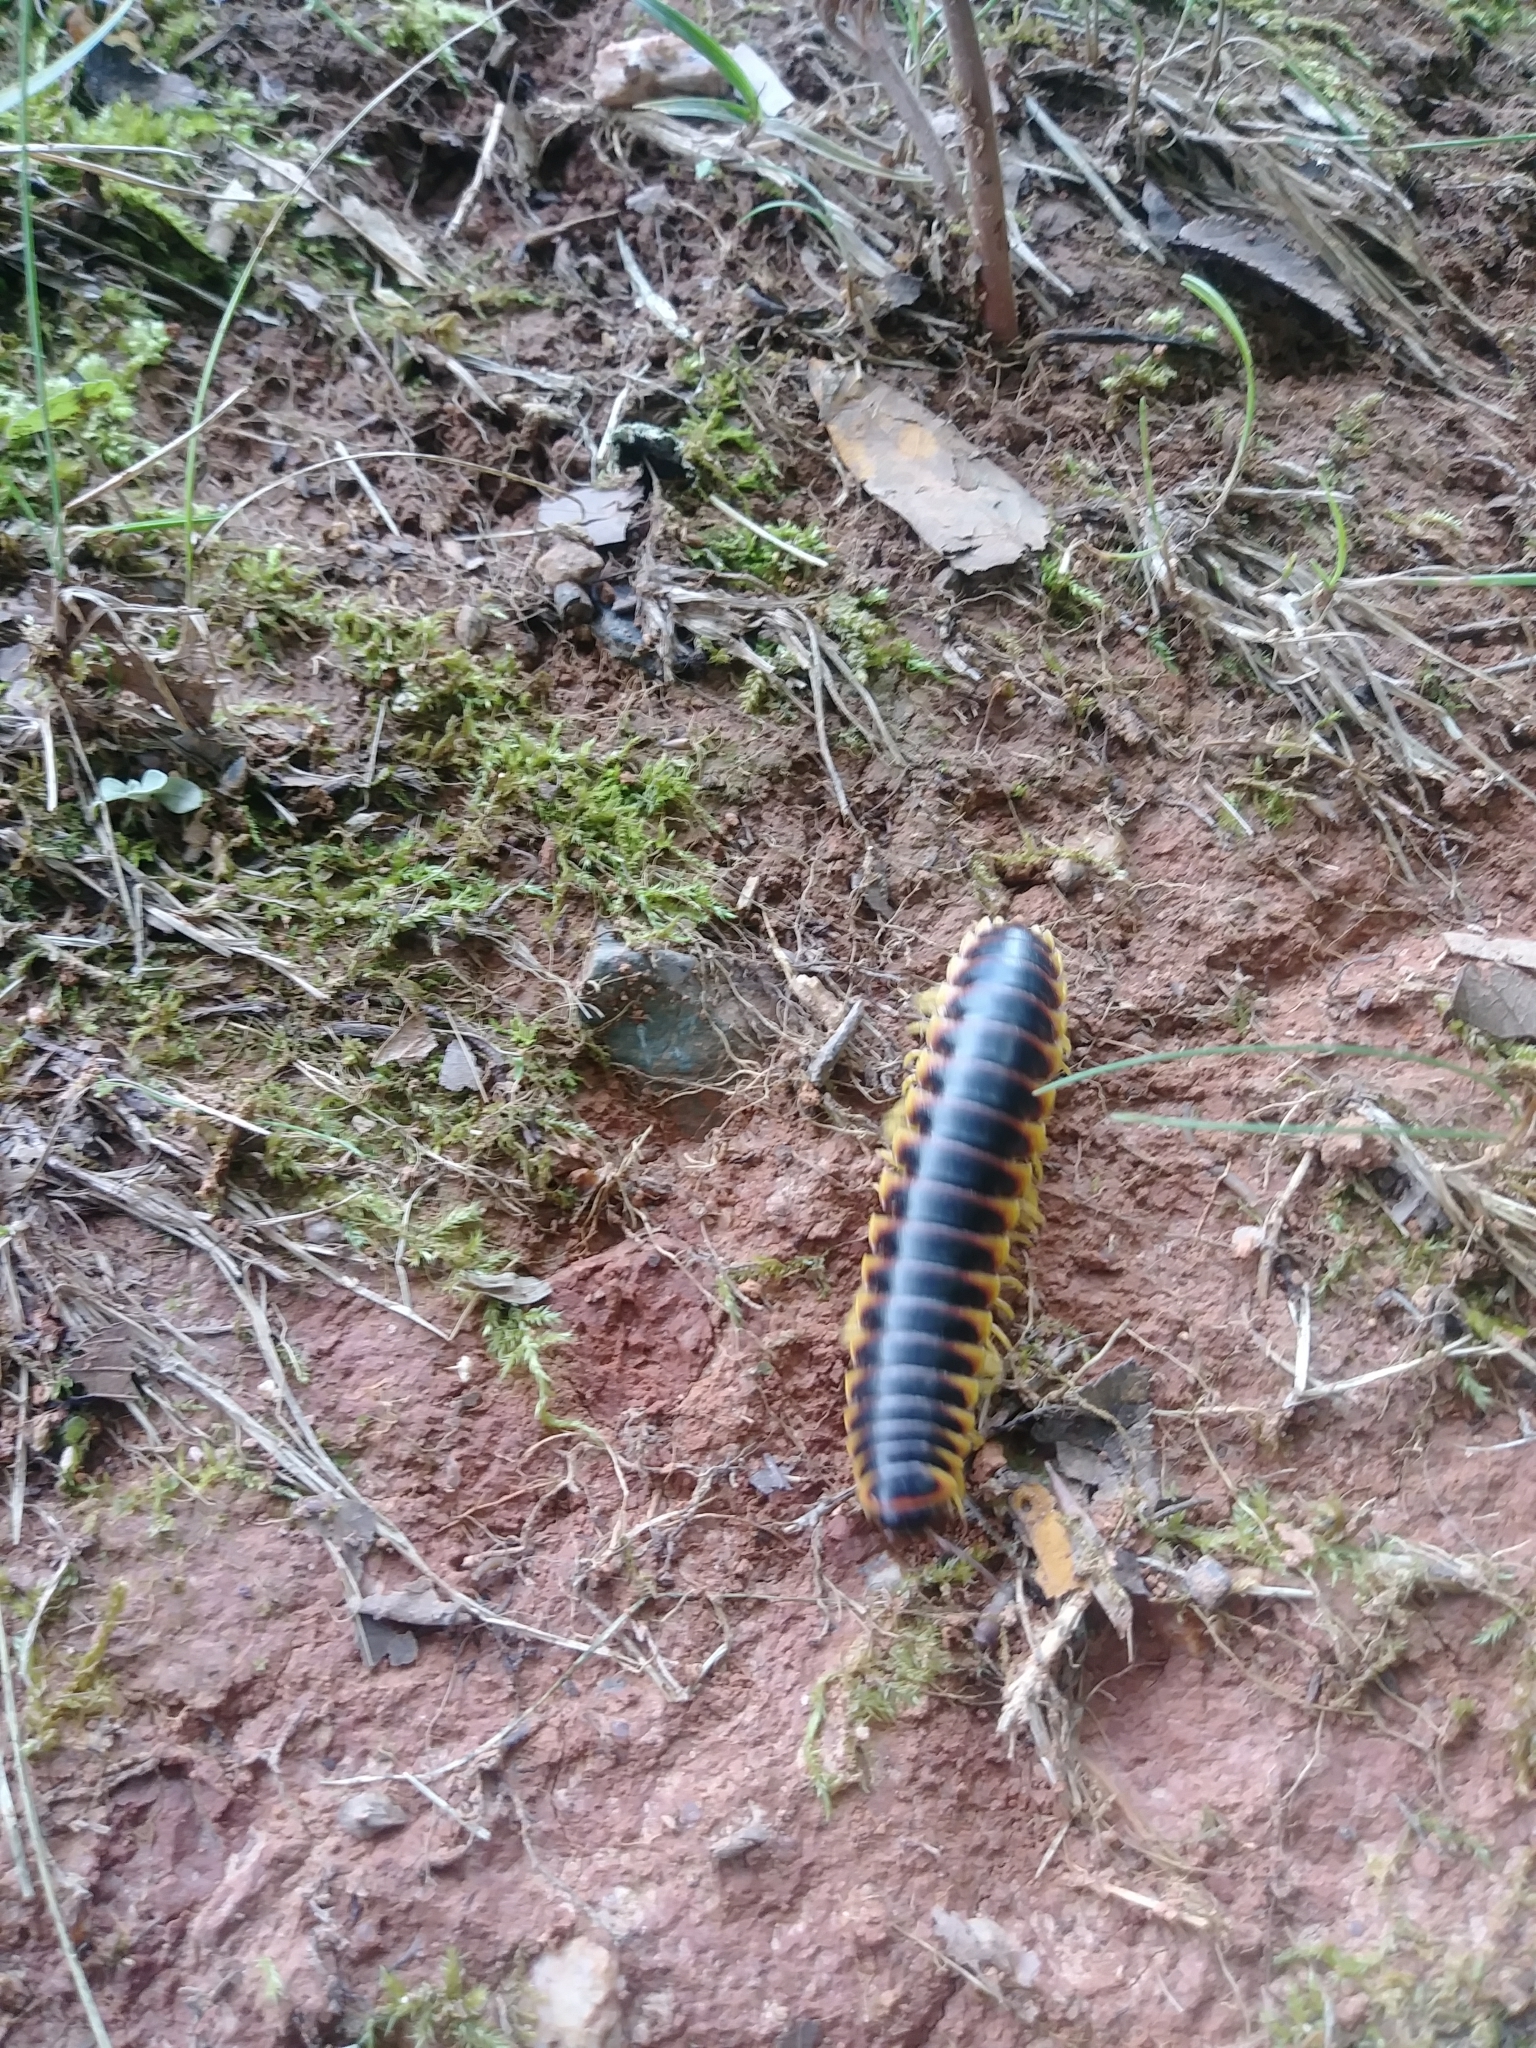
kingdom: Animalia
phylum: Arthropoda
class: Diplopoda
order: Polydesmida
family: Xystodesmidae
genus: Apheloria
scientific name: Apheloria virginiensis
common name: Black-and-gold flat millipede
